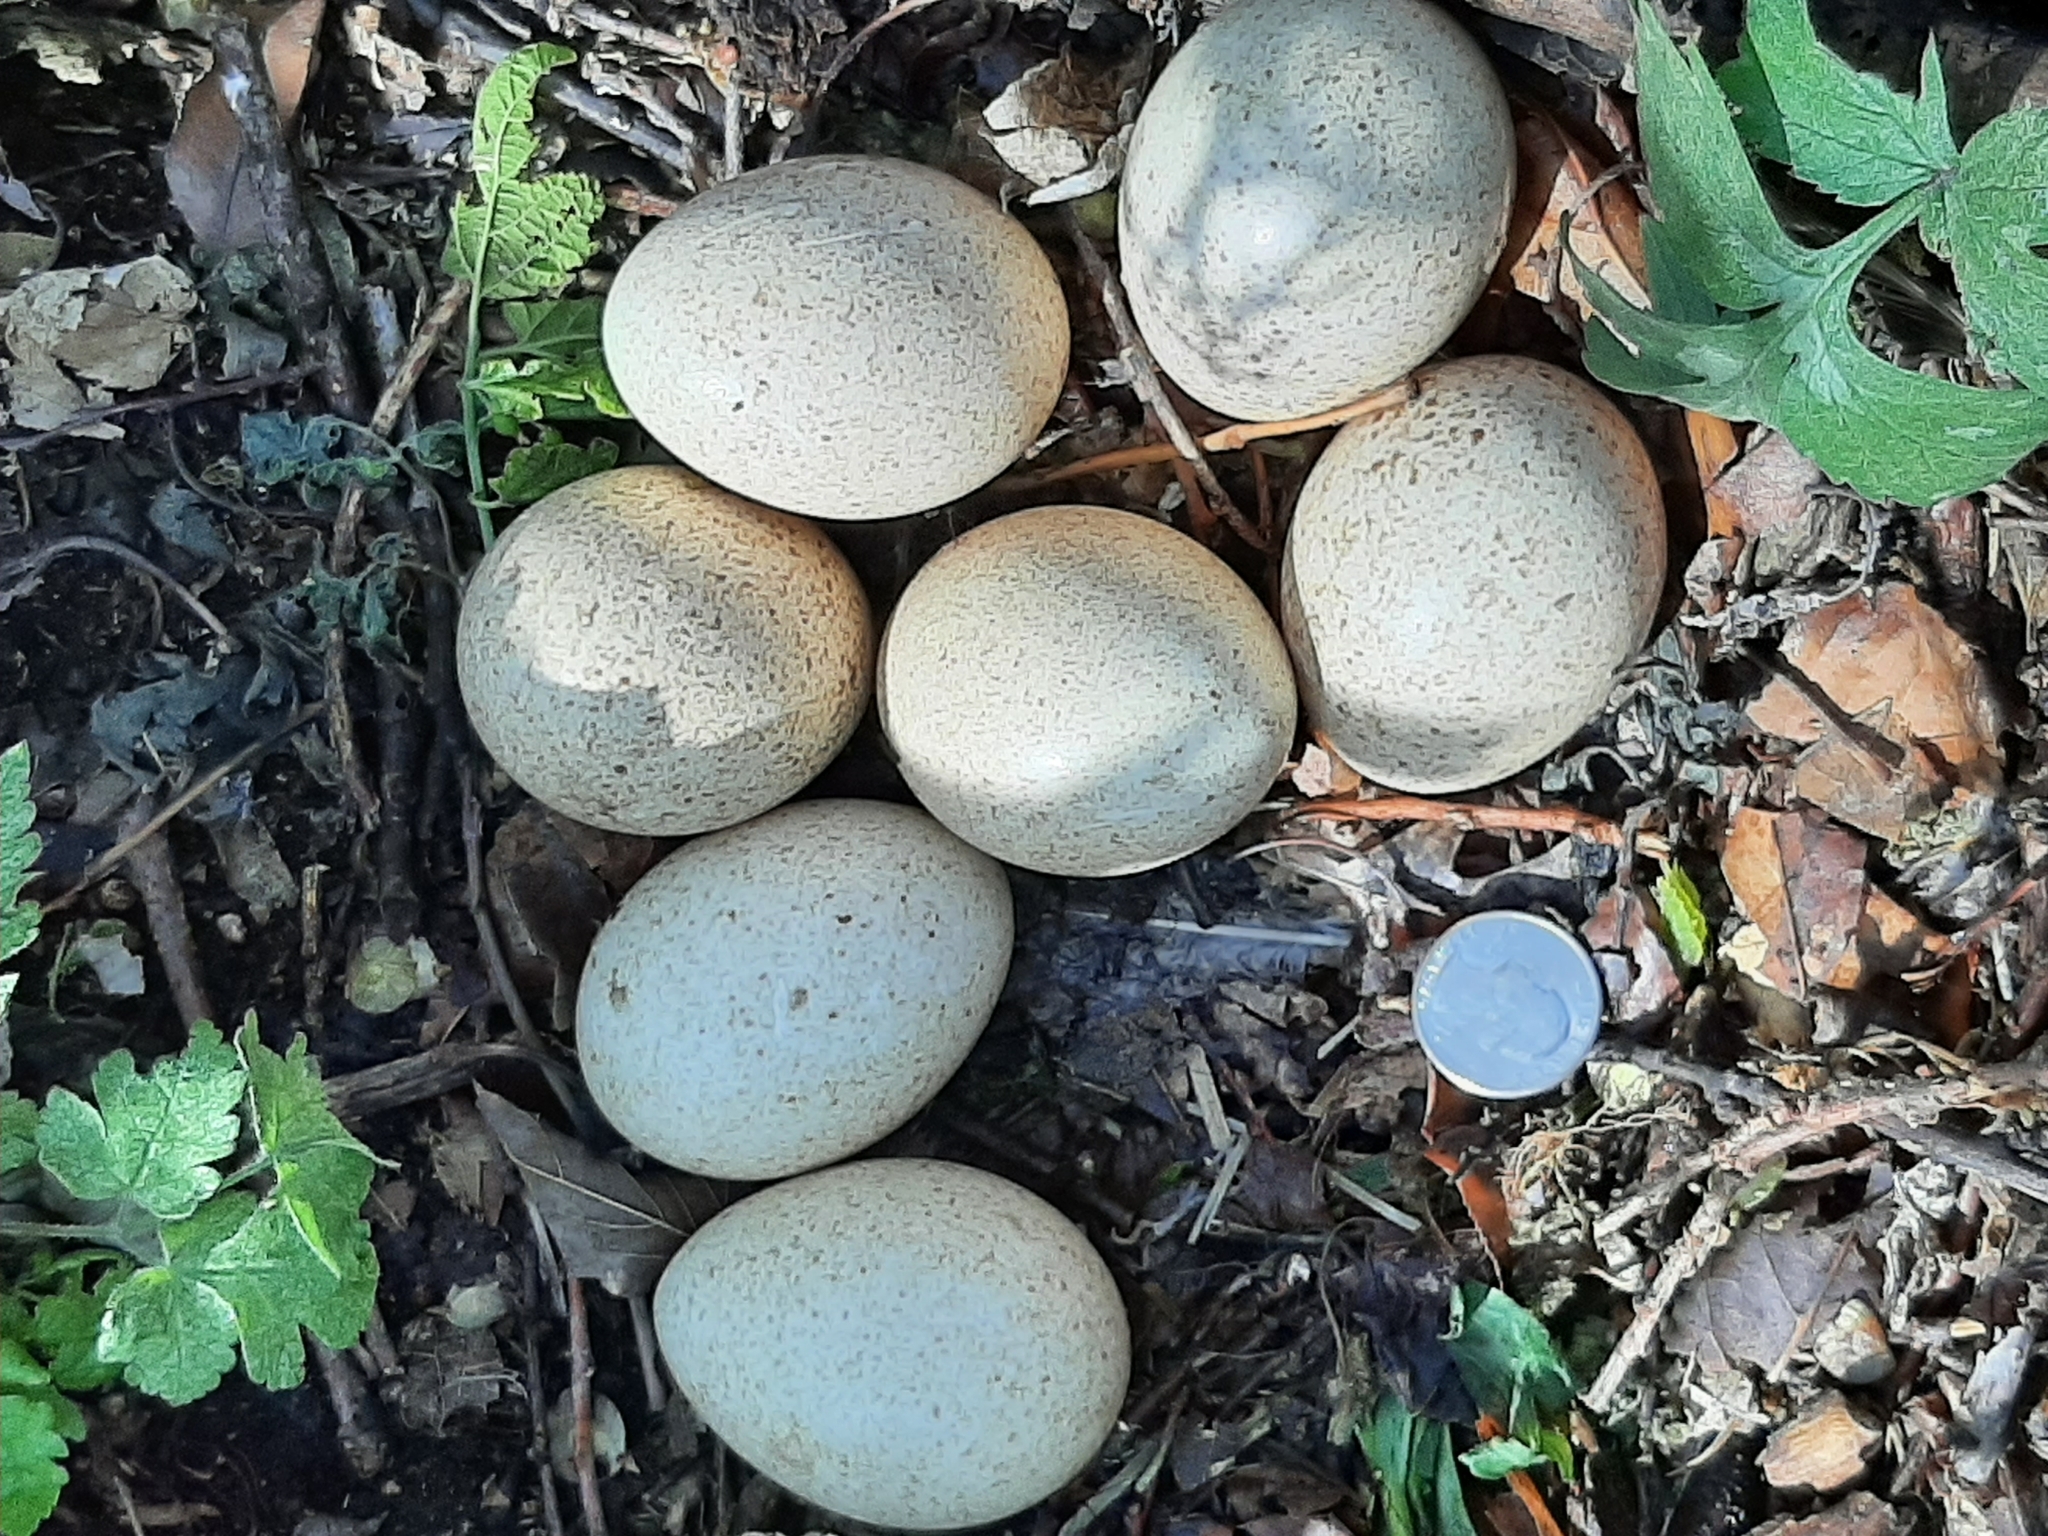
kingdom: Animalia
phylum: Chordata
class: Aves
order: Galliformes
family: Phasianidae
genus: Meleagris
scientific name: Meleagris gallopavo
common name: Wild turkey
